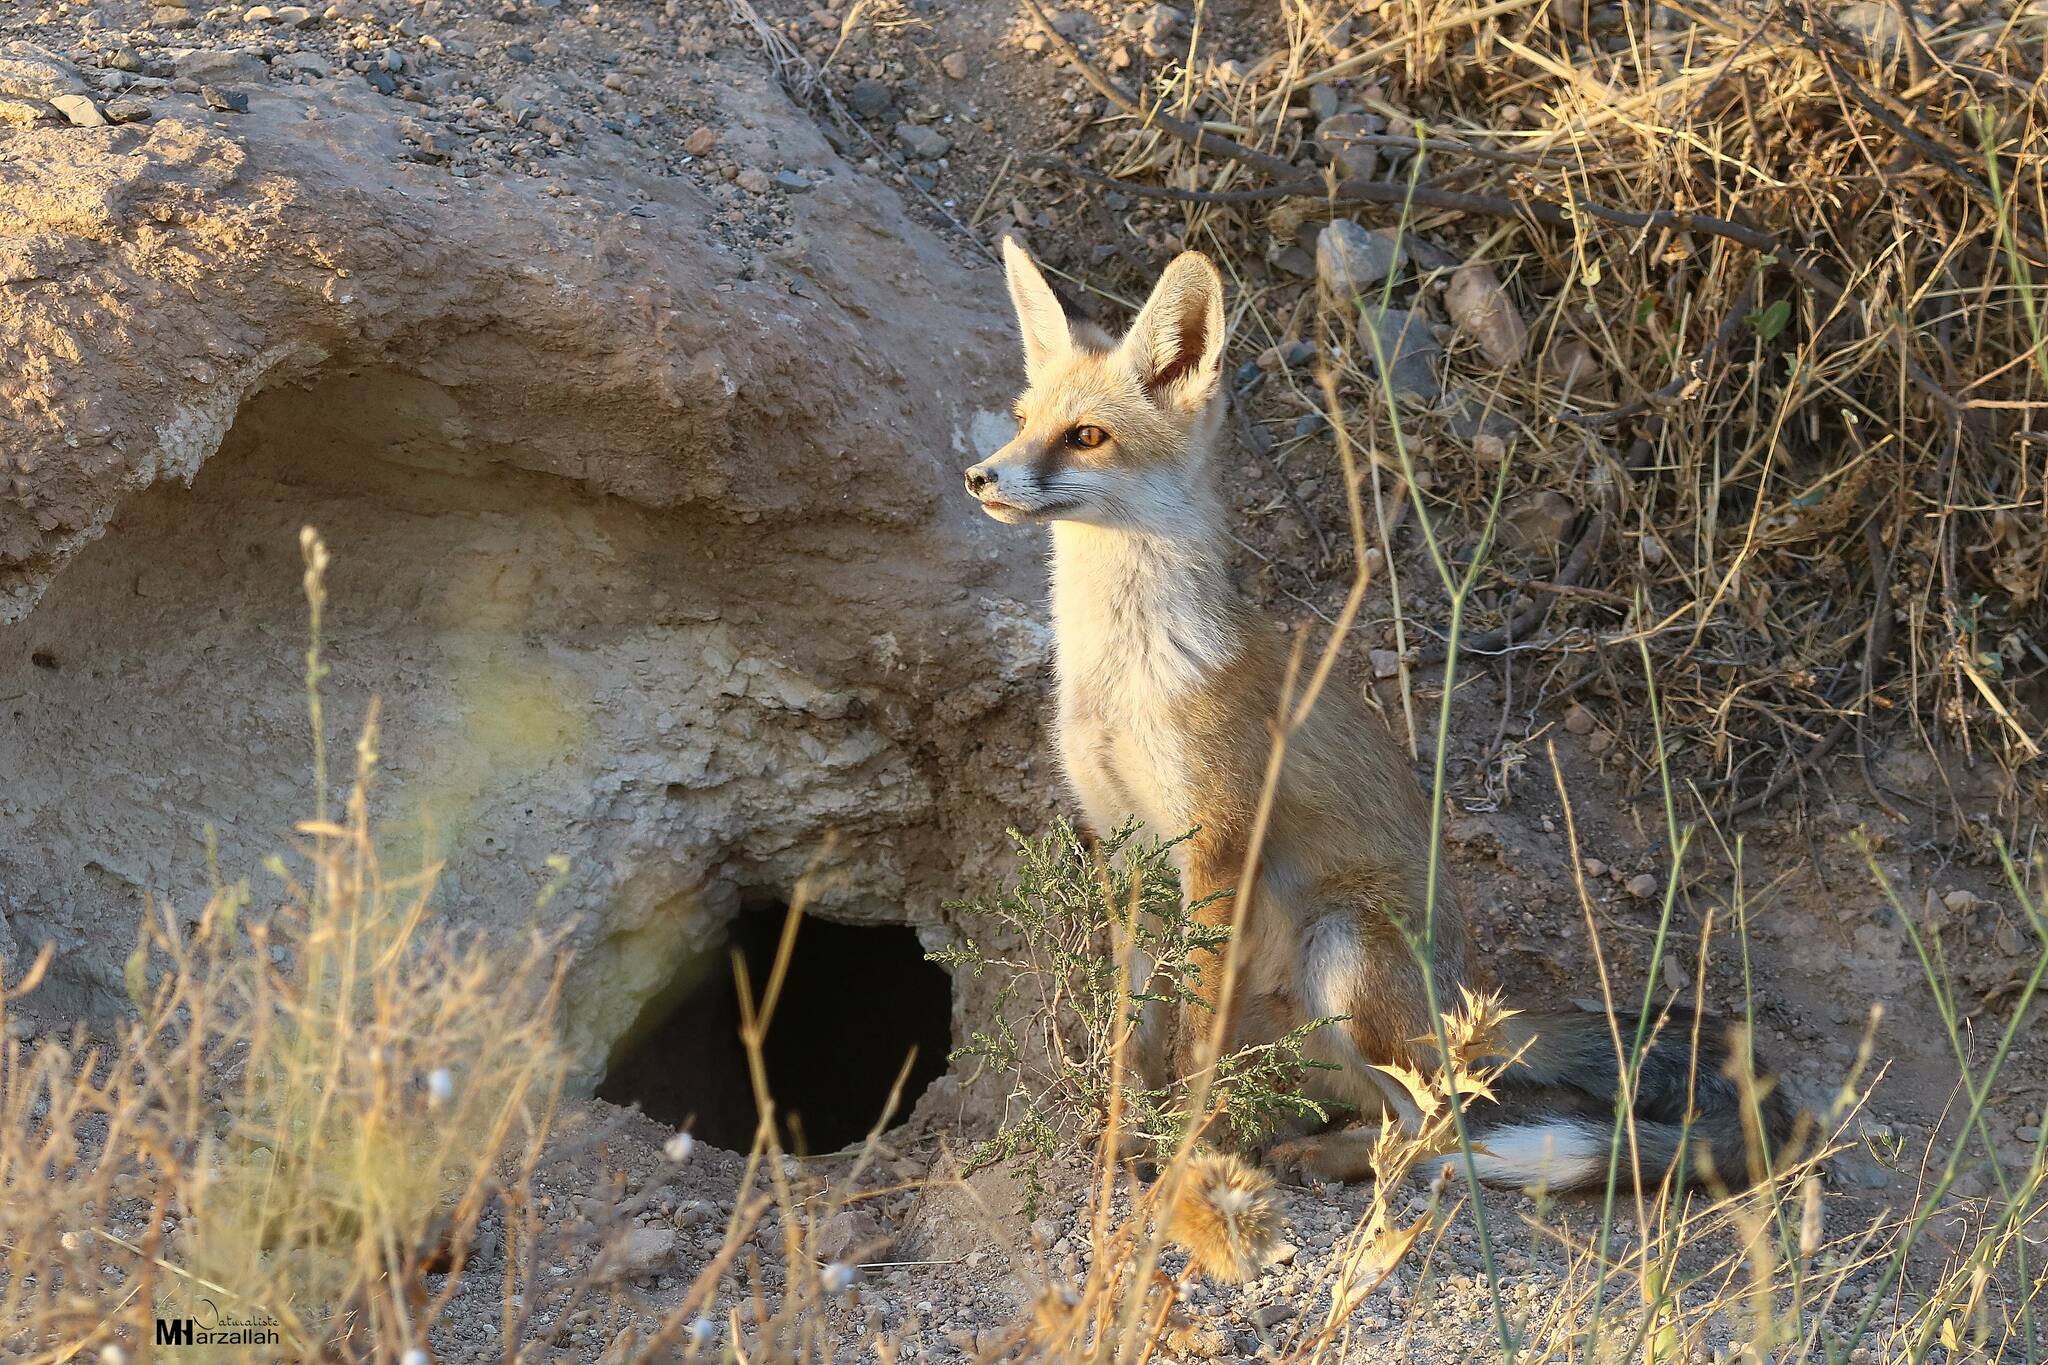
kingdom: Animalia
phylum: Chordata
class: Mammalia
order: Carnivora
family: Canidae
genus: Vulpes
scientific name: Vulpes vulpes
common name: Red fox
